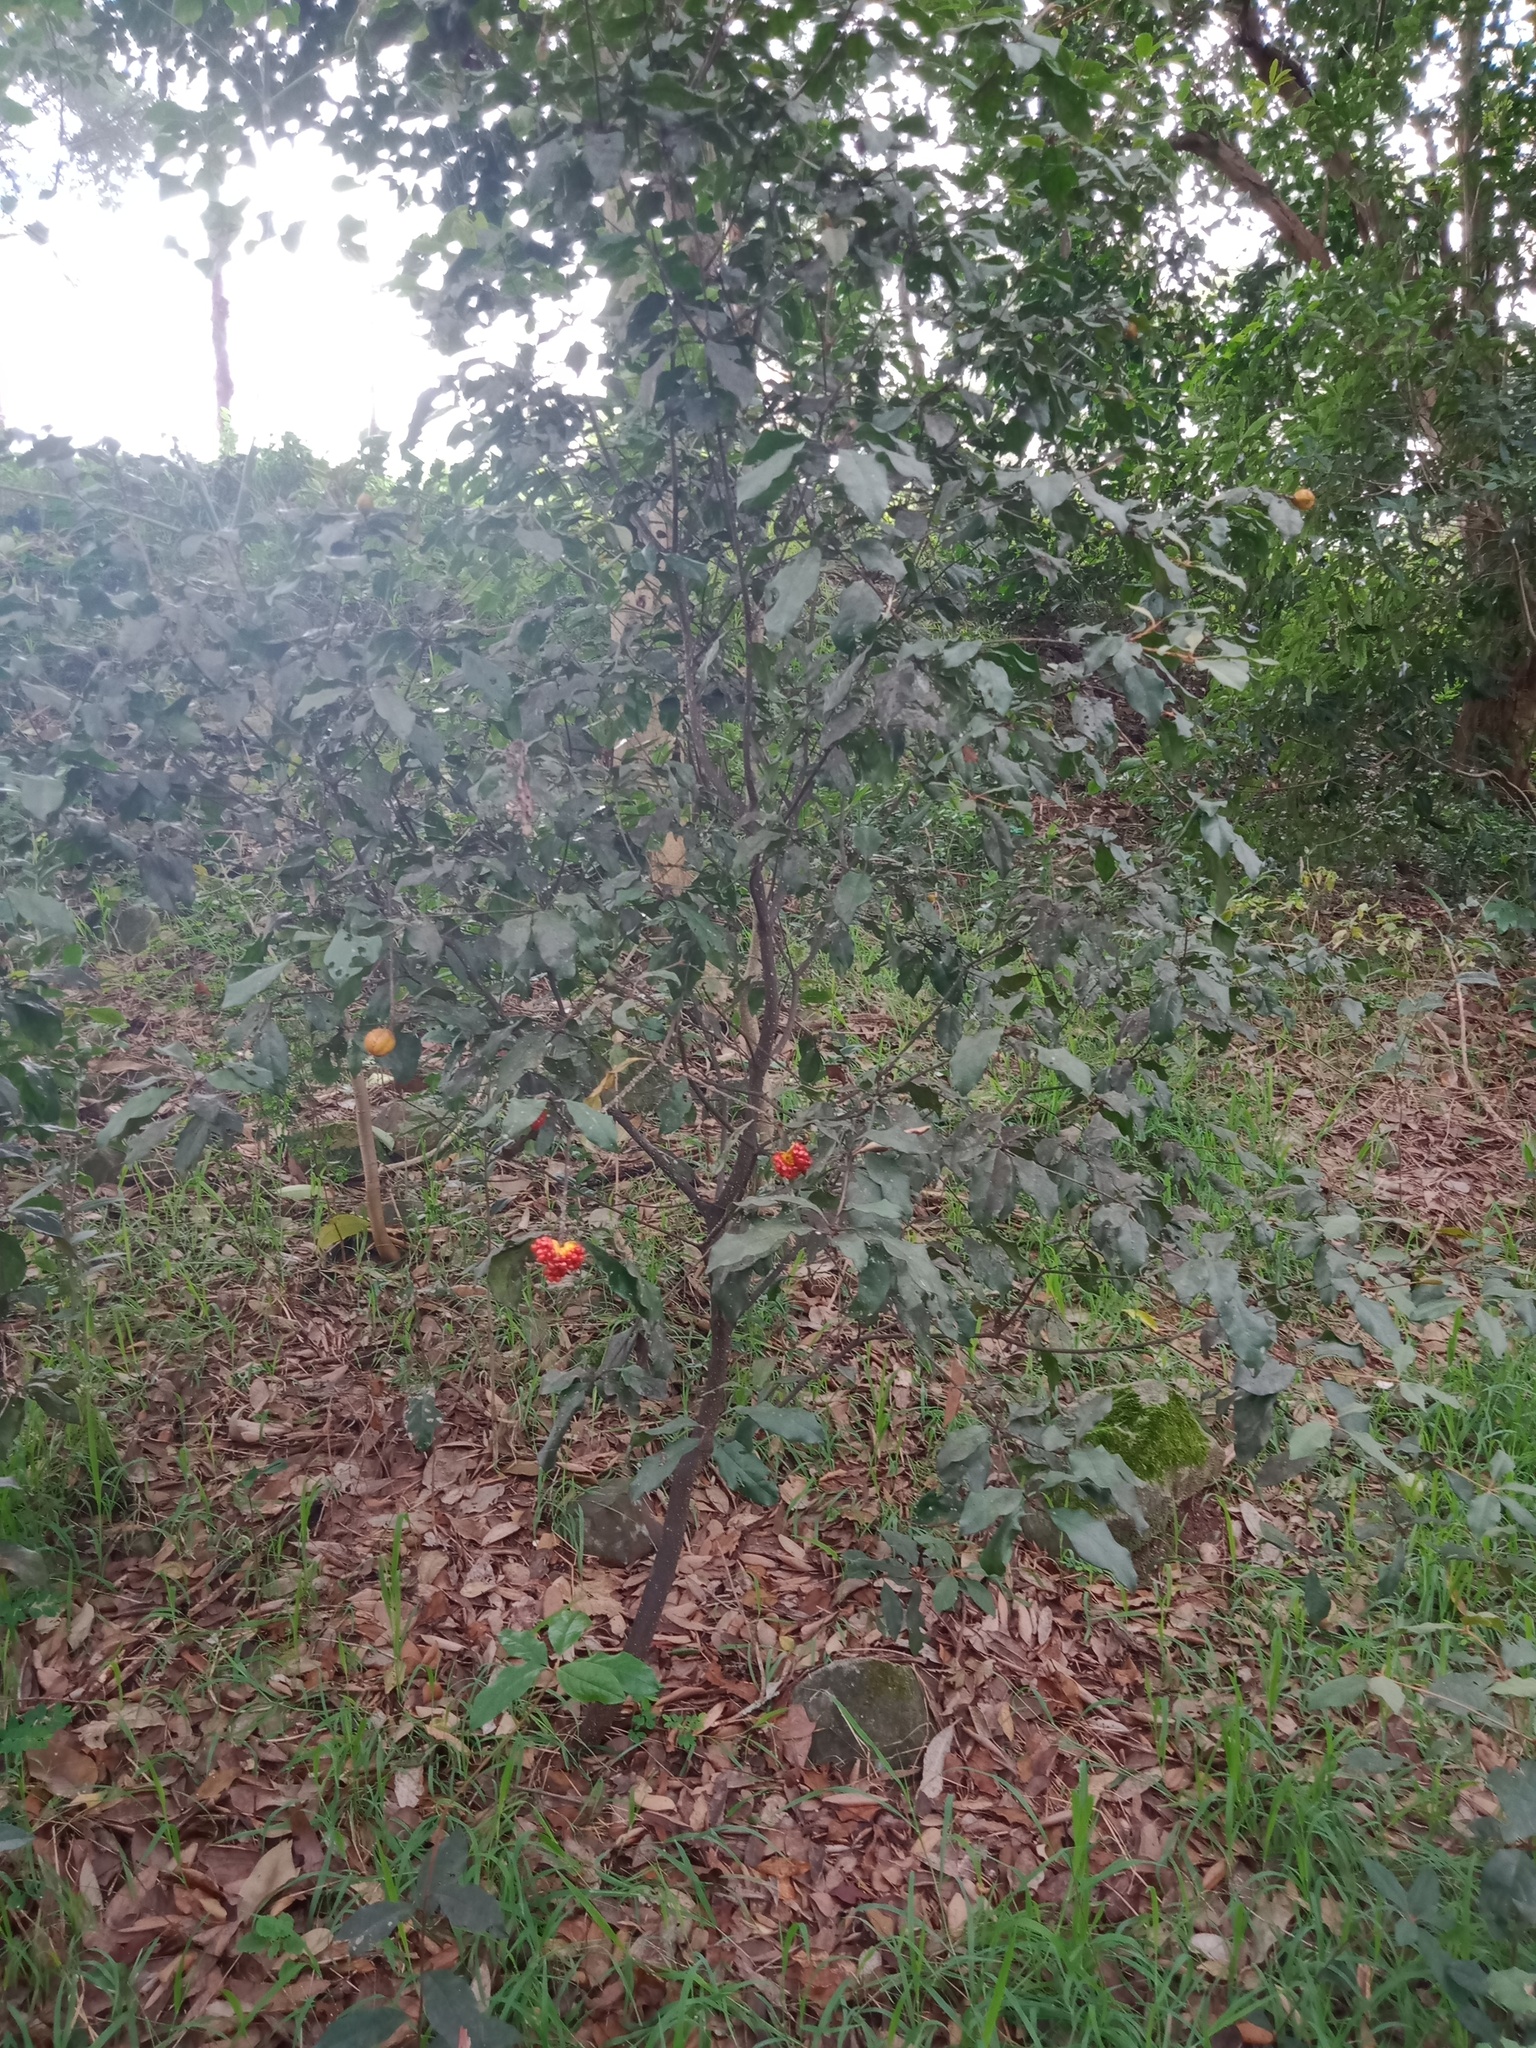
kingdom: Plantae
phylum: Tracheophyta
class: Magnoliopsida
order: Apiales
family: Pittosporaceae
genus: Pittosporum
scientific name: Pittosporum revolutum
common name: Brisbane-laurel
